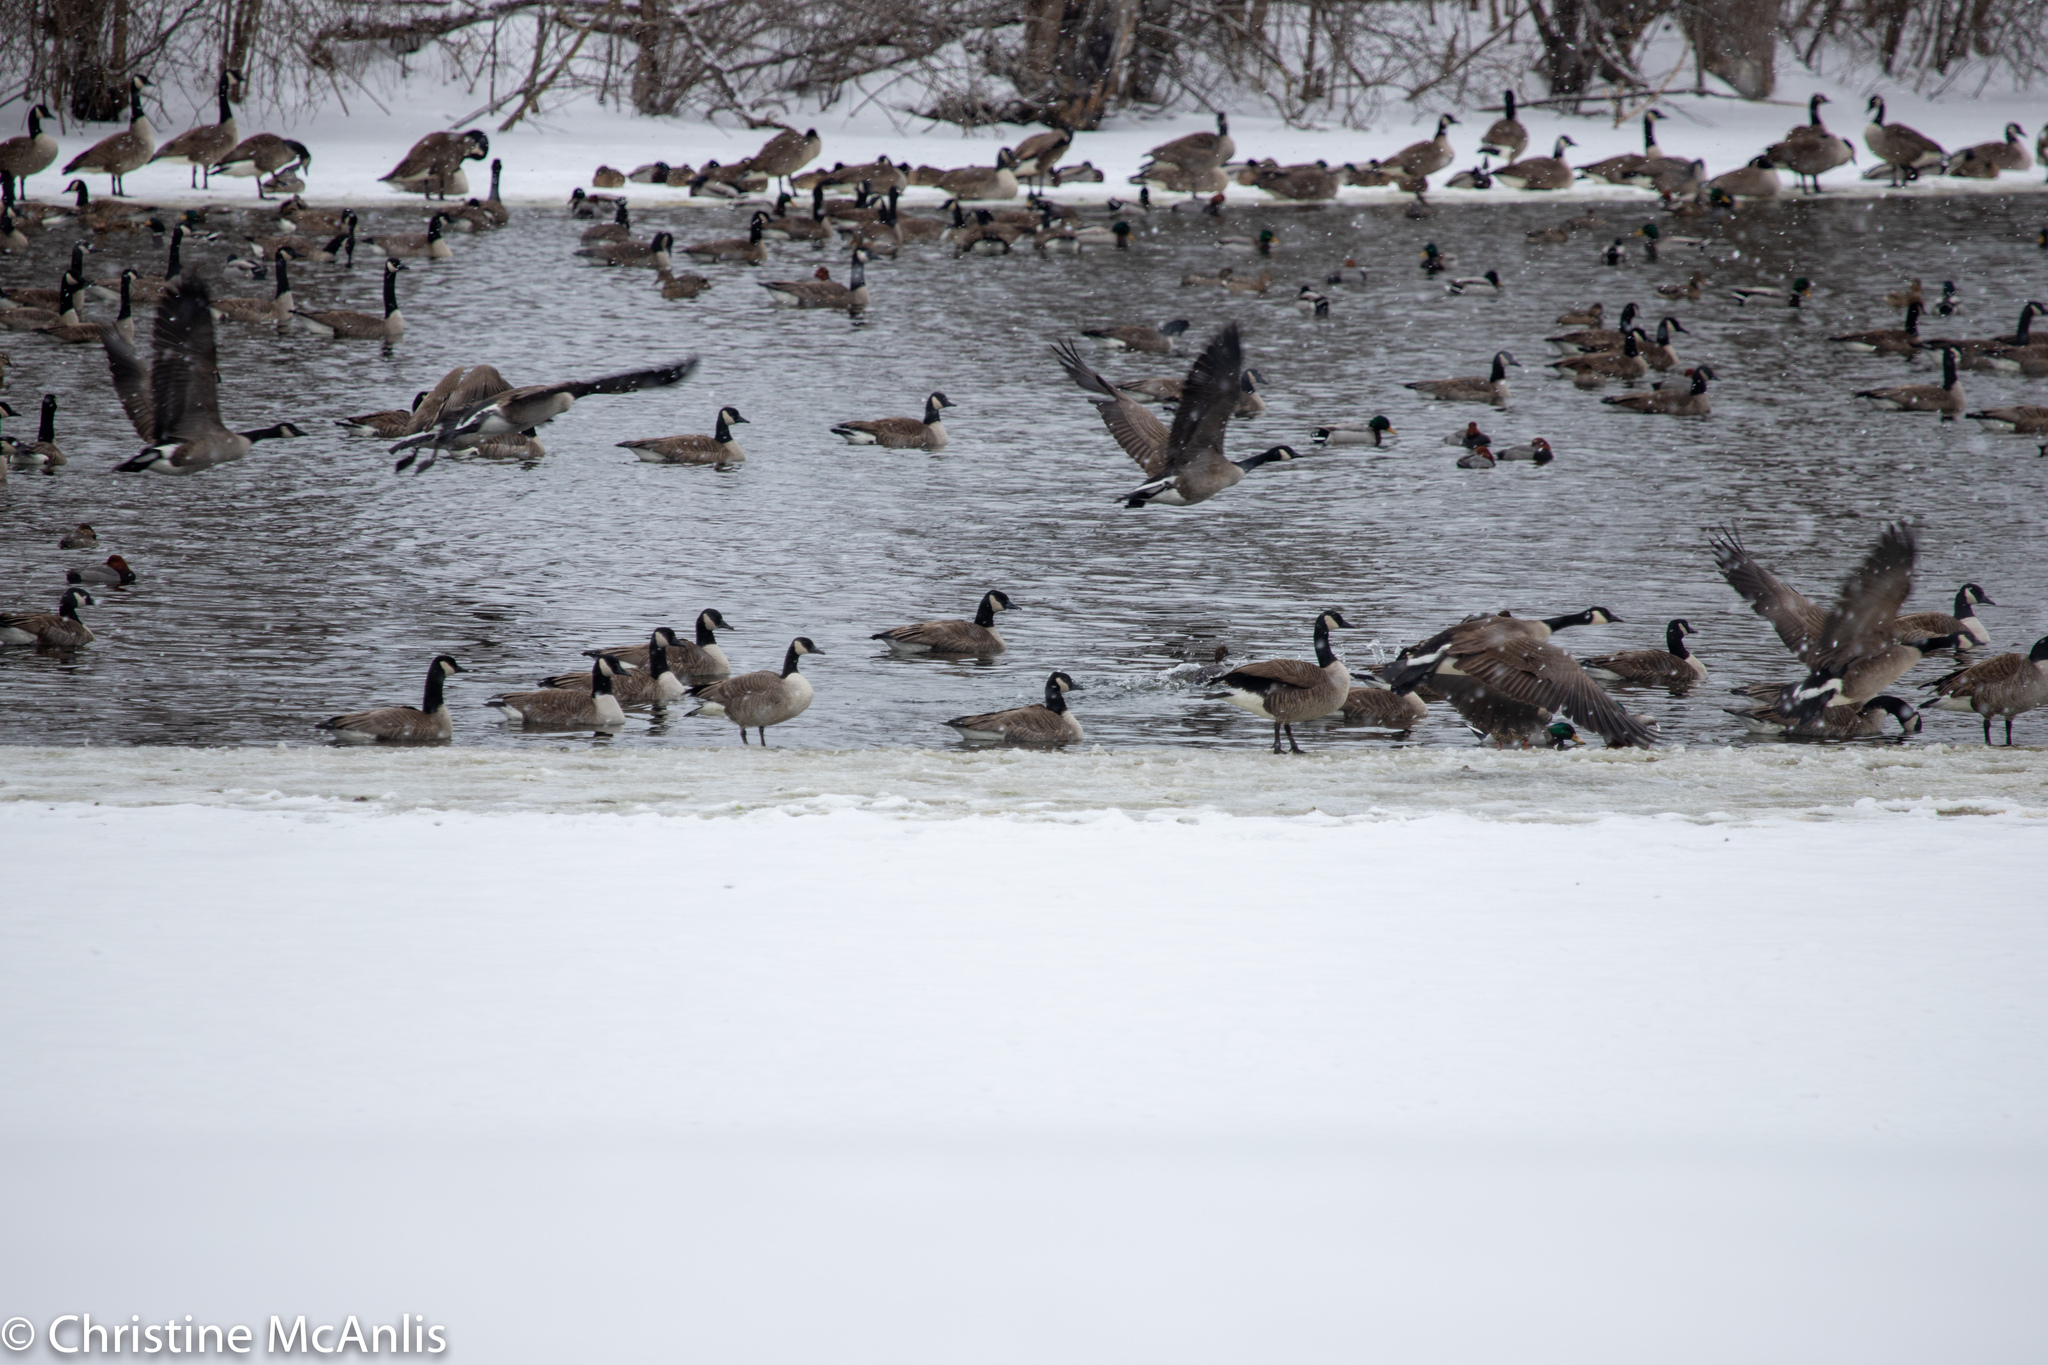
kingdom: Animalia
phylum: Chordata
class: Aves
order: Anseriformes
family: Anatidae
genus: Branta
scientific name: Branta canadensis
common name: Canada goose
